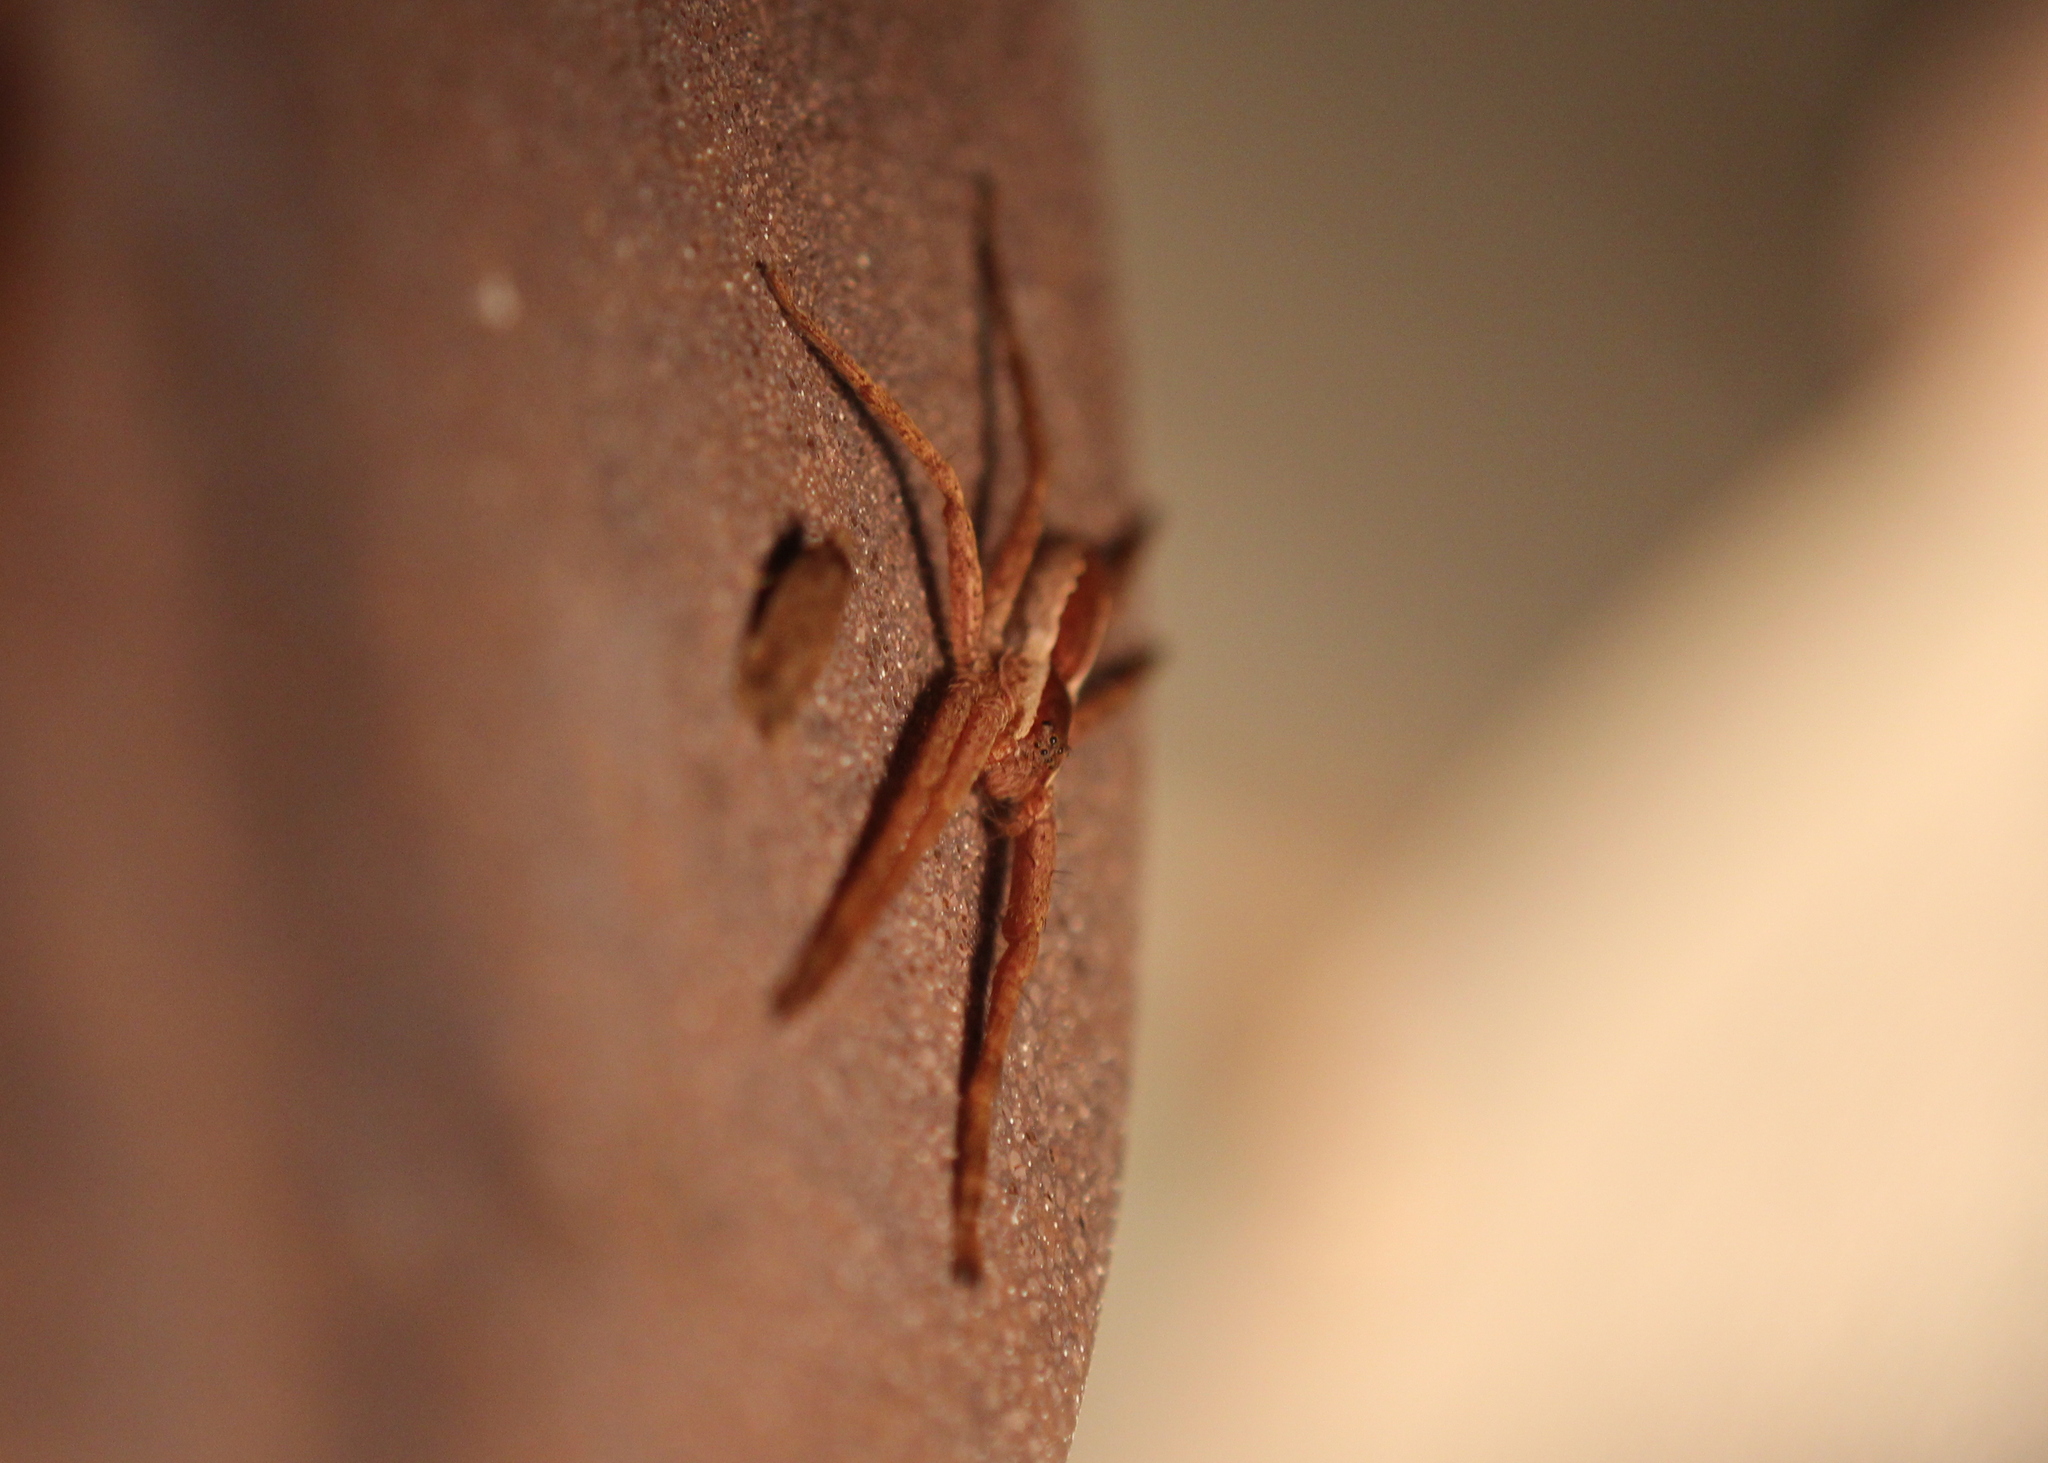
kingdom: Animalia
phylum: Arthropoda
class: Arachnida
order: Araneae
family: Pisauridae
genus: Pisaurina
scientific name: Pisaurina mira
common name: American nursery web spider
